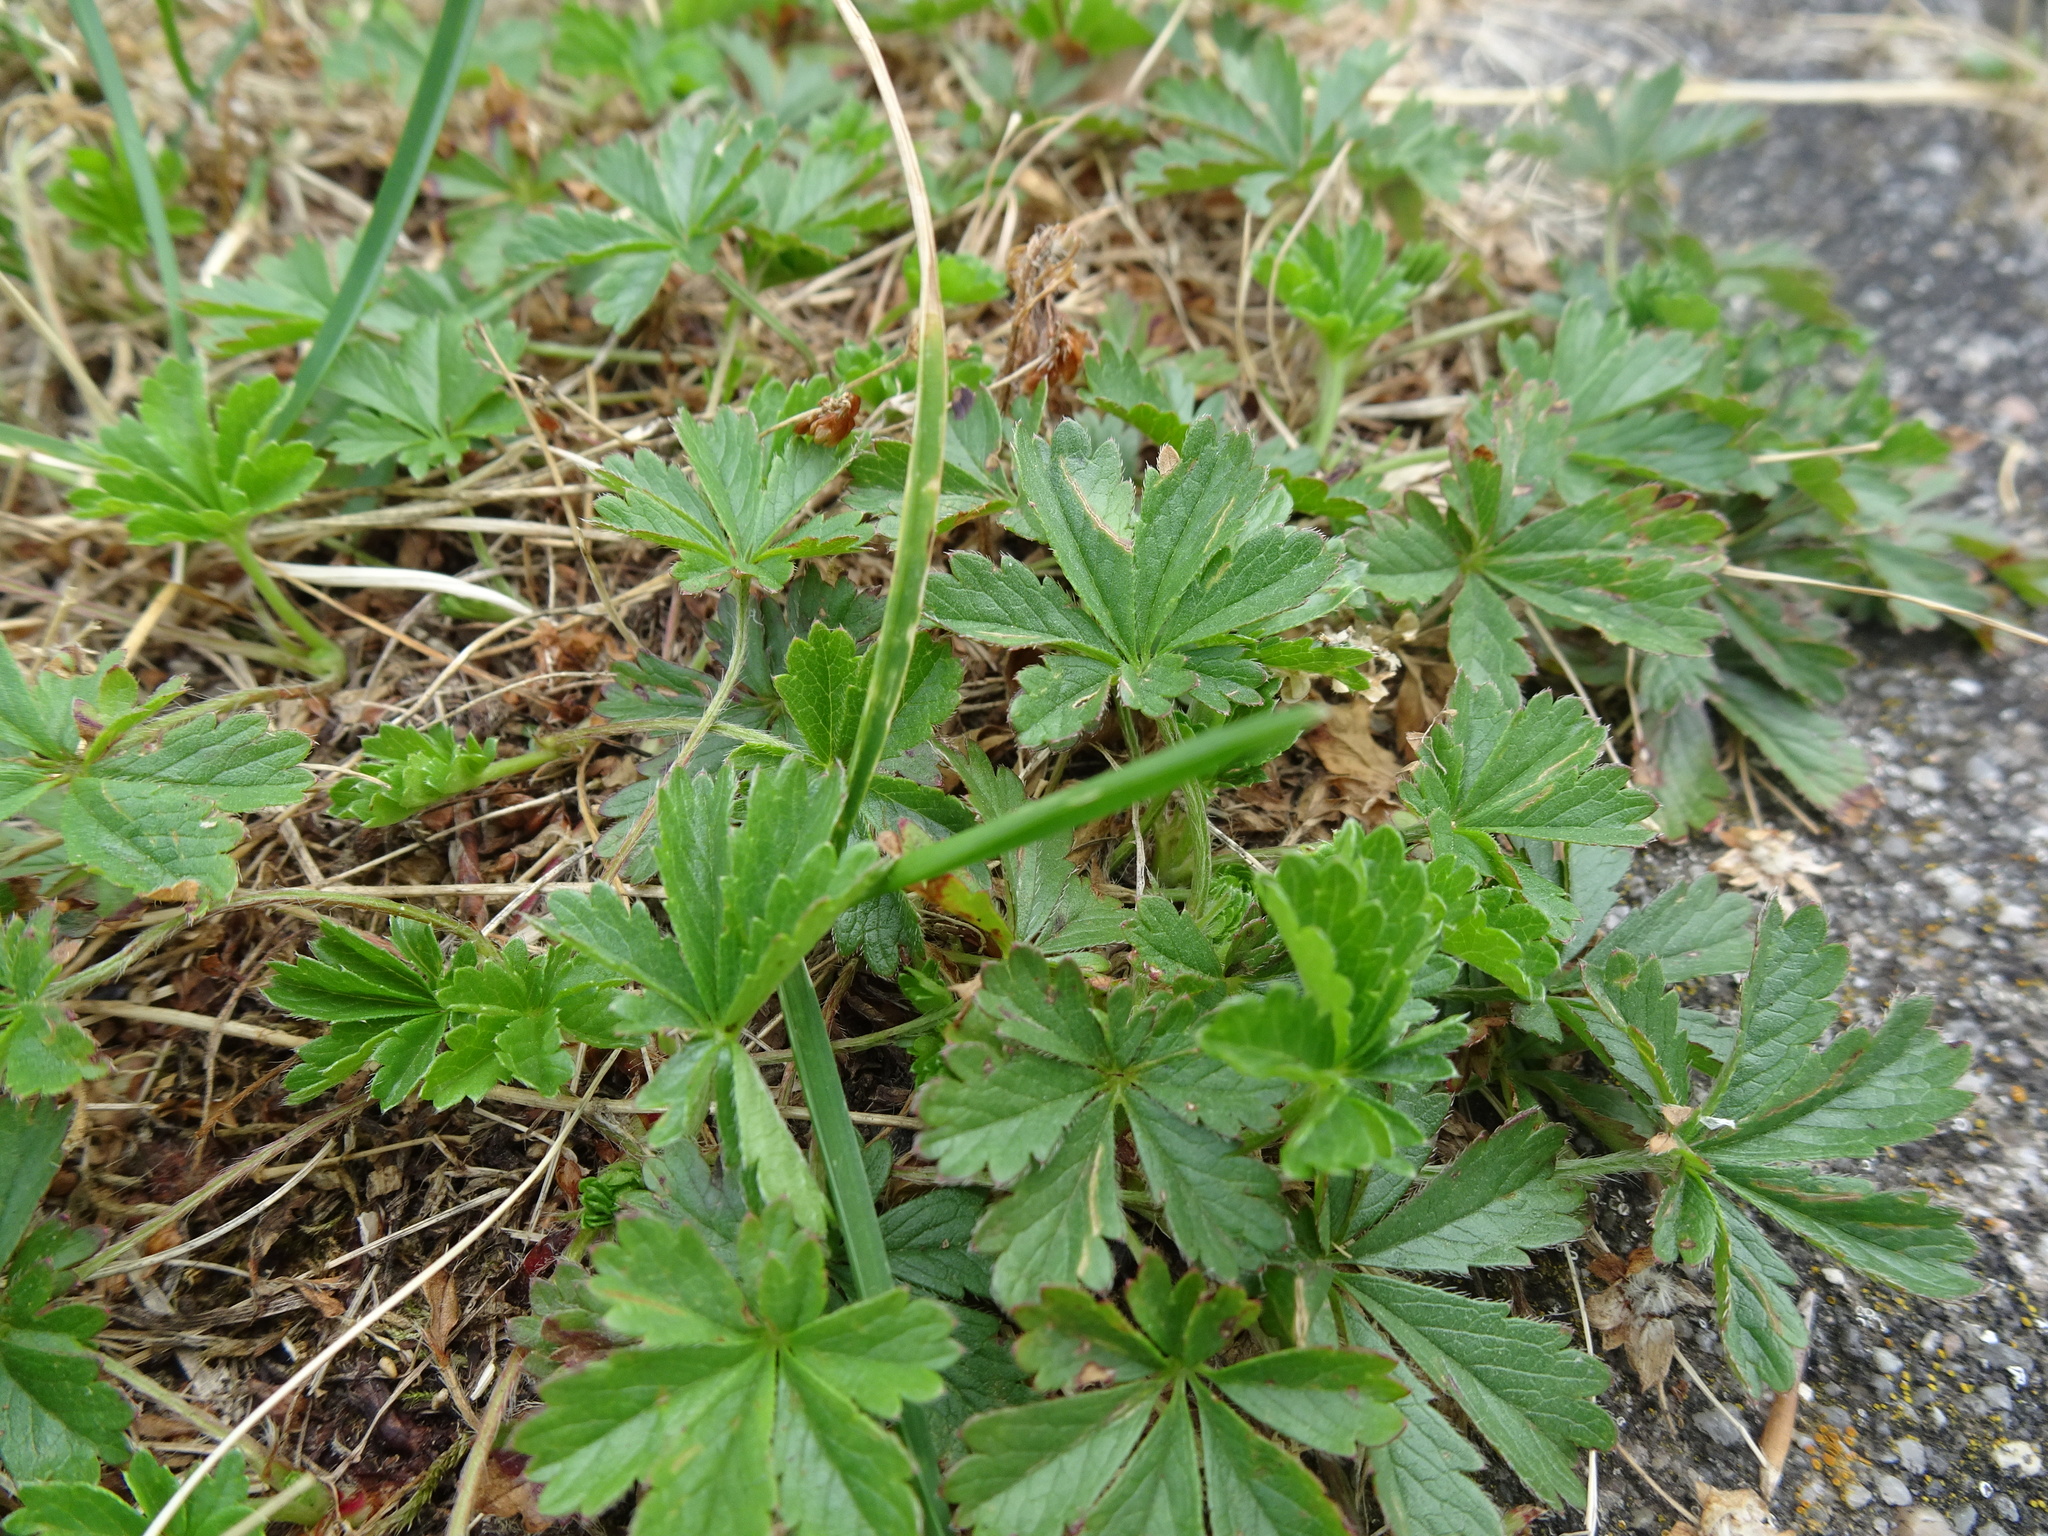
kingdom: Plantae
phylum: Tracheophyta
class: Magnoliopsida
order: Rosales
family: Rosaceae
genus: Potentilla
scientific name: Potentilla reptans
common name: Creeping cinquefoil
